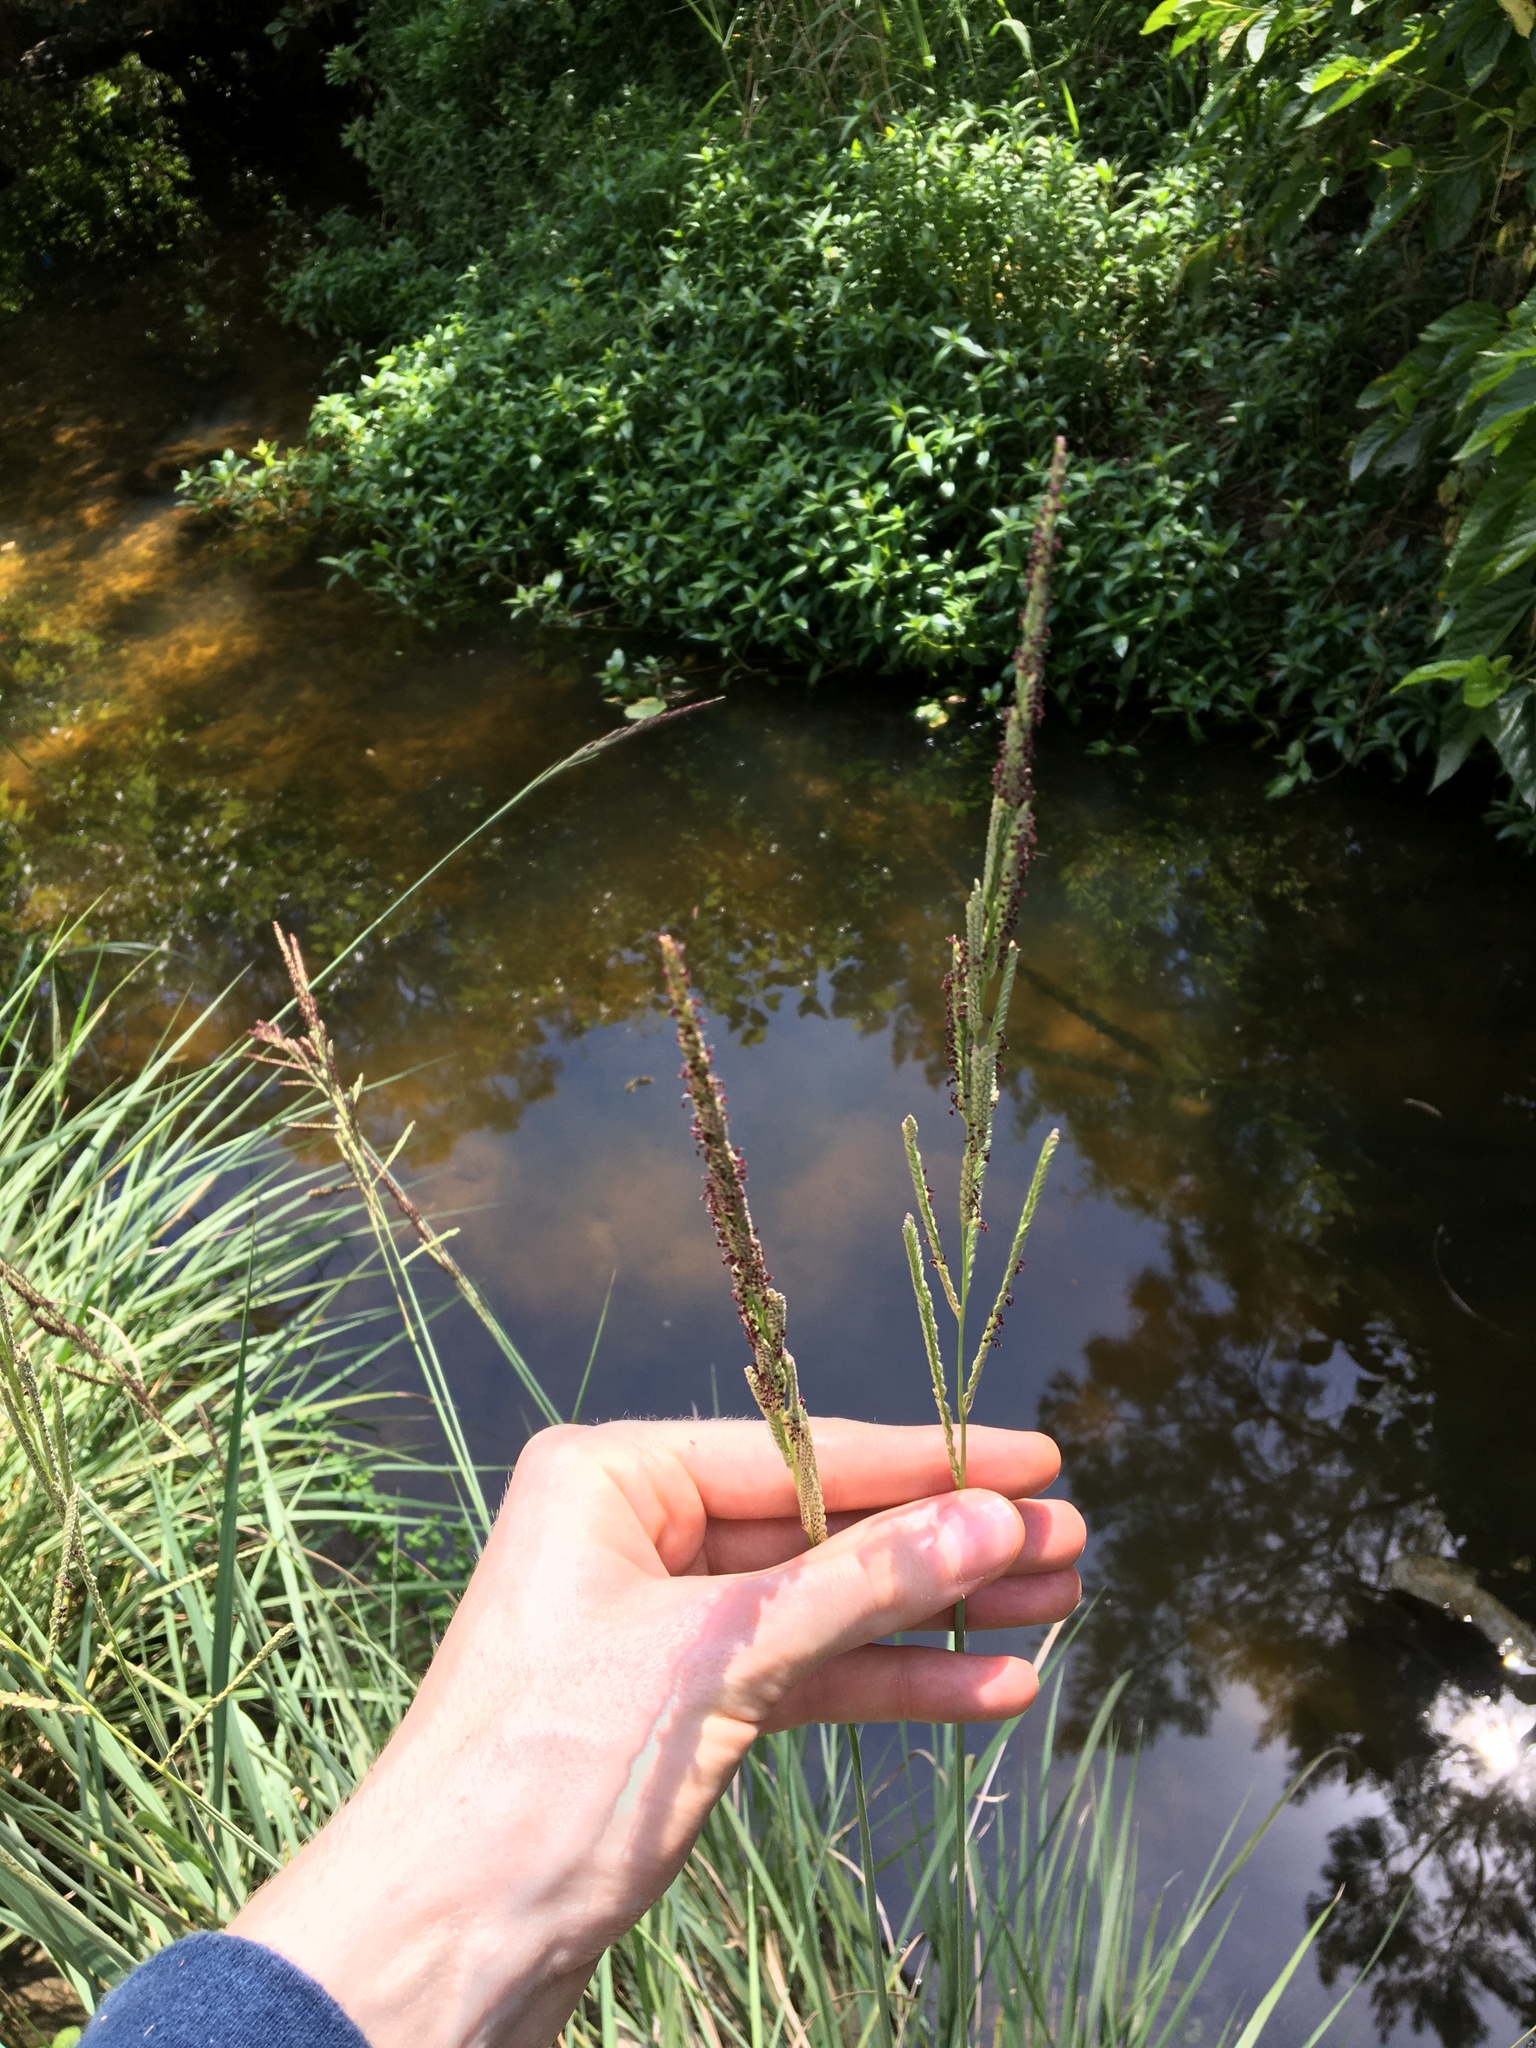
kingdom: Plantae
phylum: Tracheophyta
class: Liliopsida
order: Poales
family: Poaceae
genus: Paspalum
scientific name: Paspalum urvillei
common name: Vasey's grass
